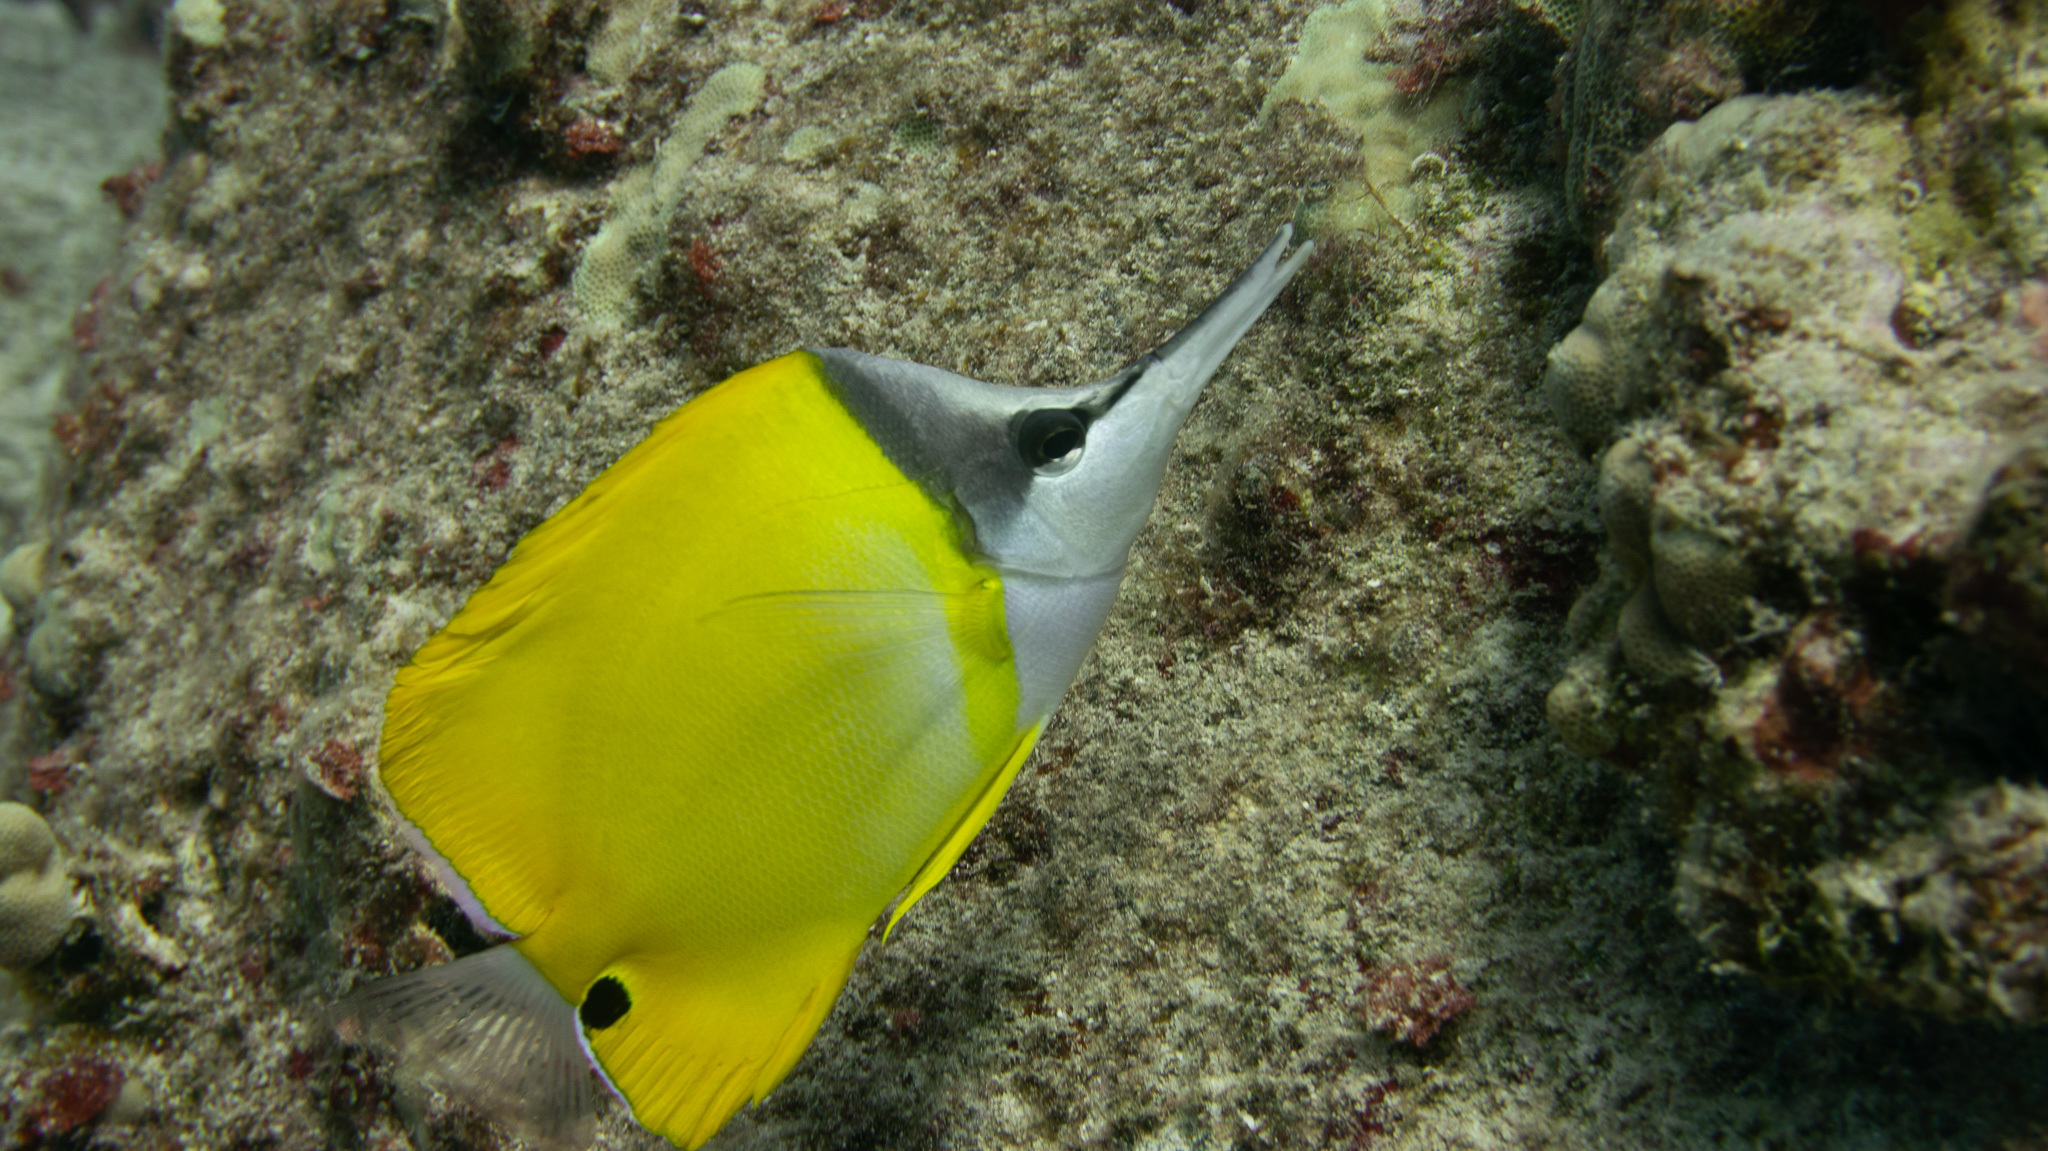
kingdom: Animalia
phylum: Chordata
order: Perciformes
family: Chaetodontidae
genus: Forcipiger
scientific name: Forcipiger flavissimus
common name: Forcepsfish
